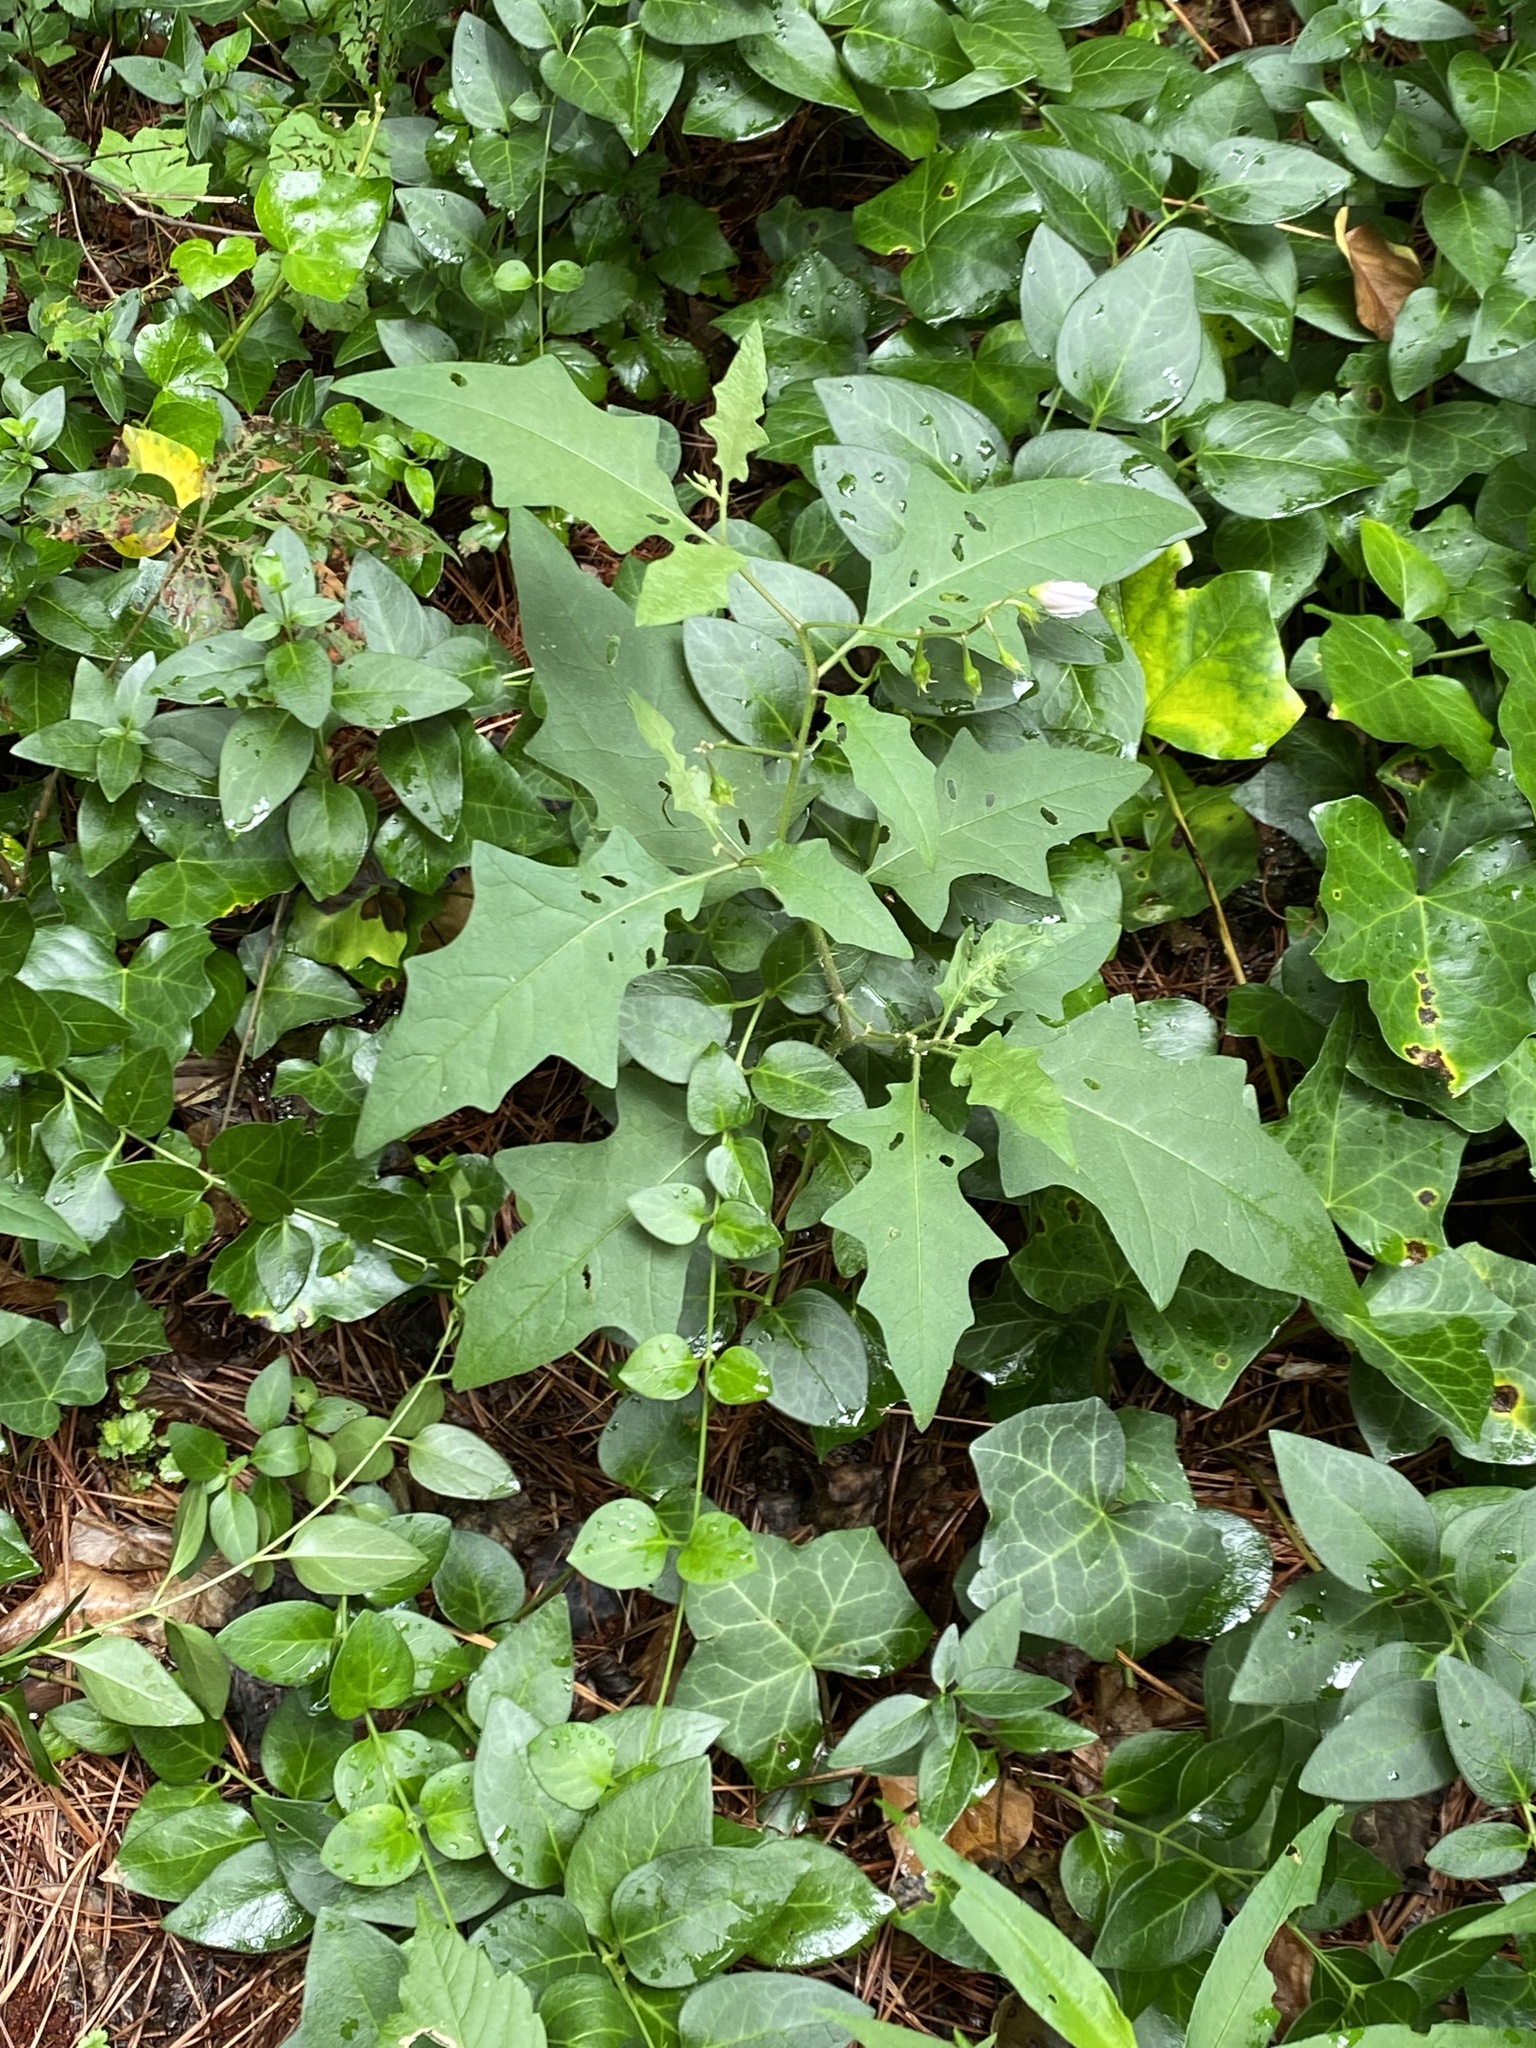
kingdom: Plantae
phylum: Tracheophyta
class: Magnoliopsida
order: Solanales
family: Solanaceae
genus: Solanum
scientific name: Solanum carolinense
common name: Horse-nettle
